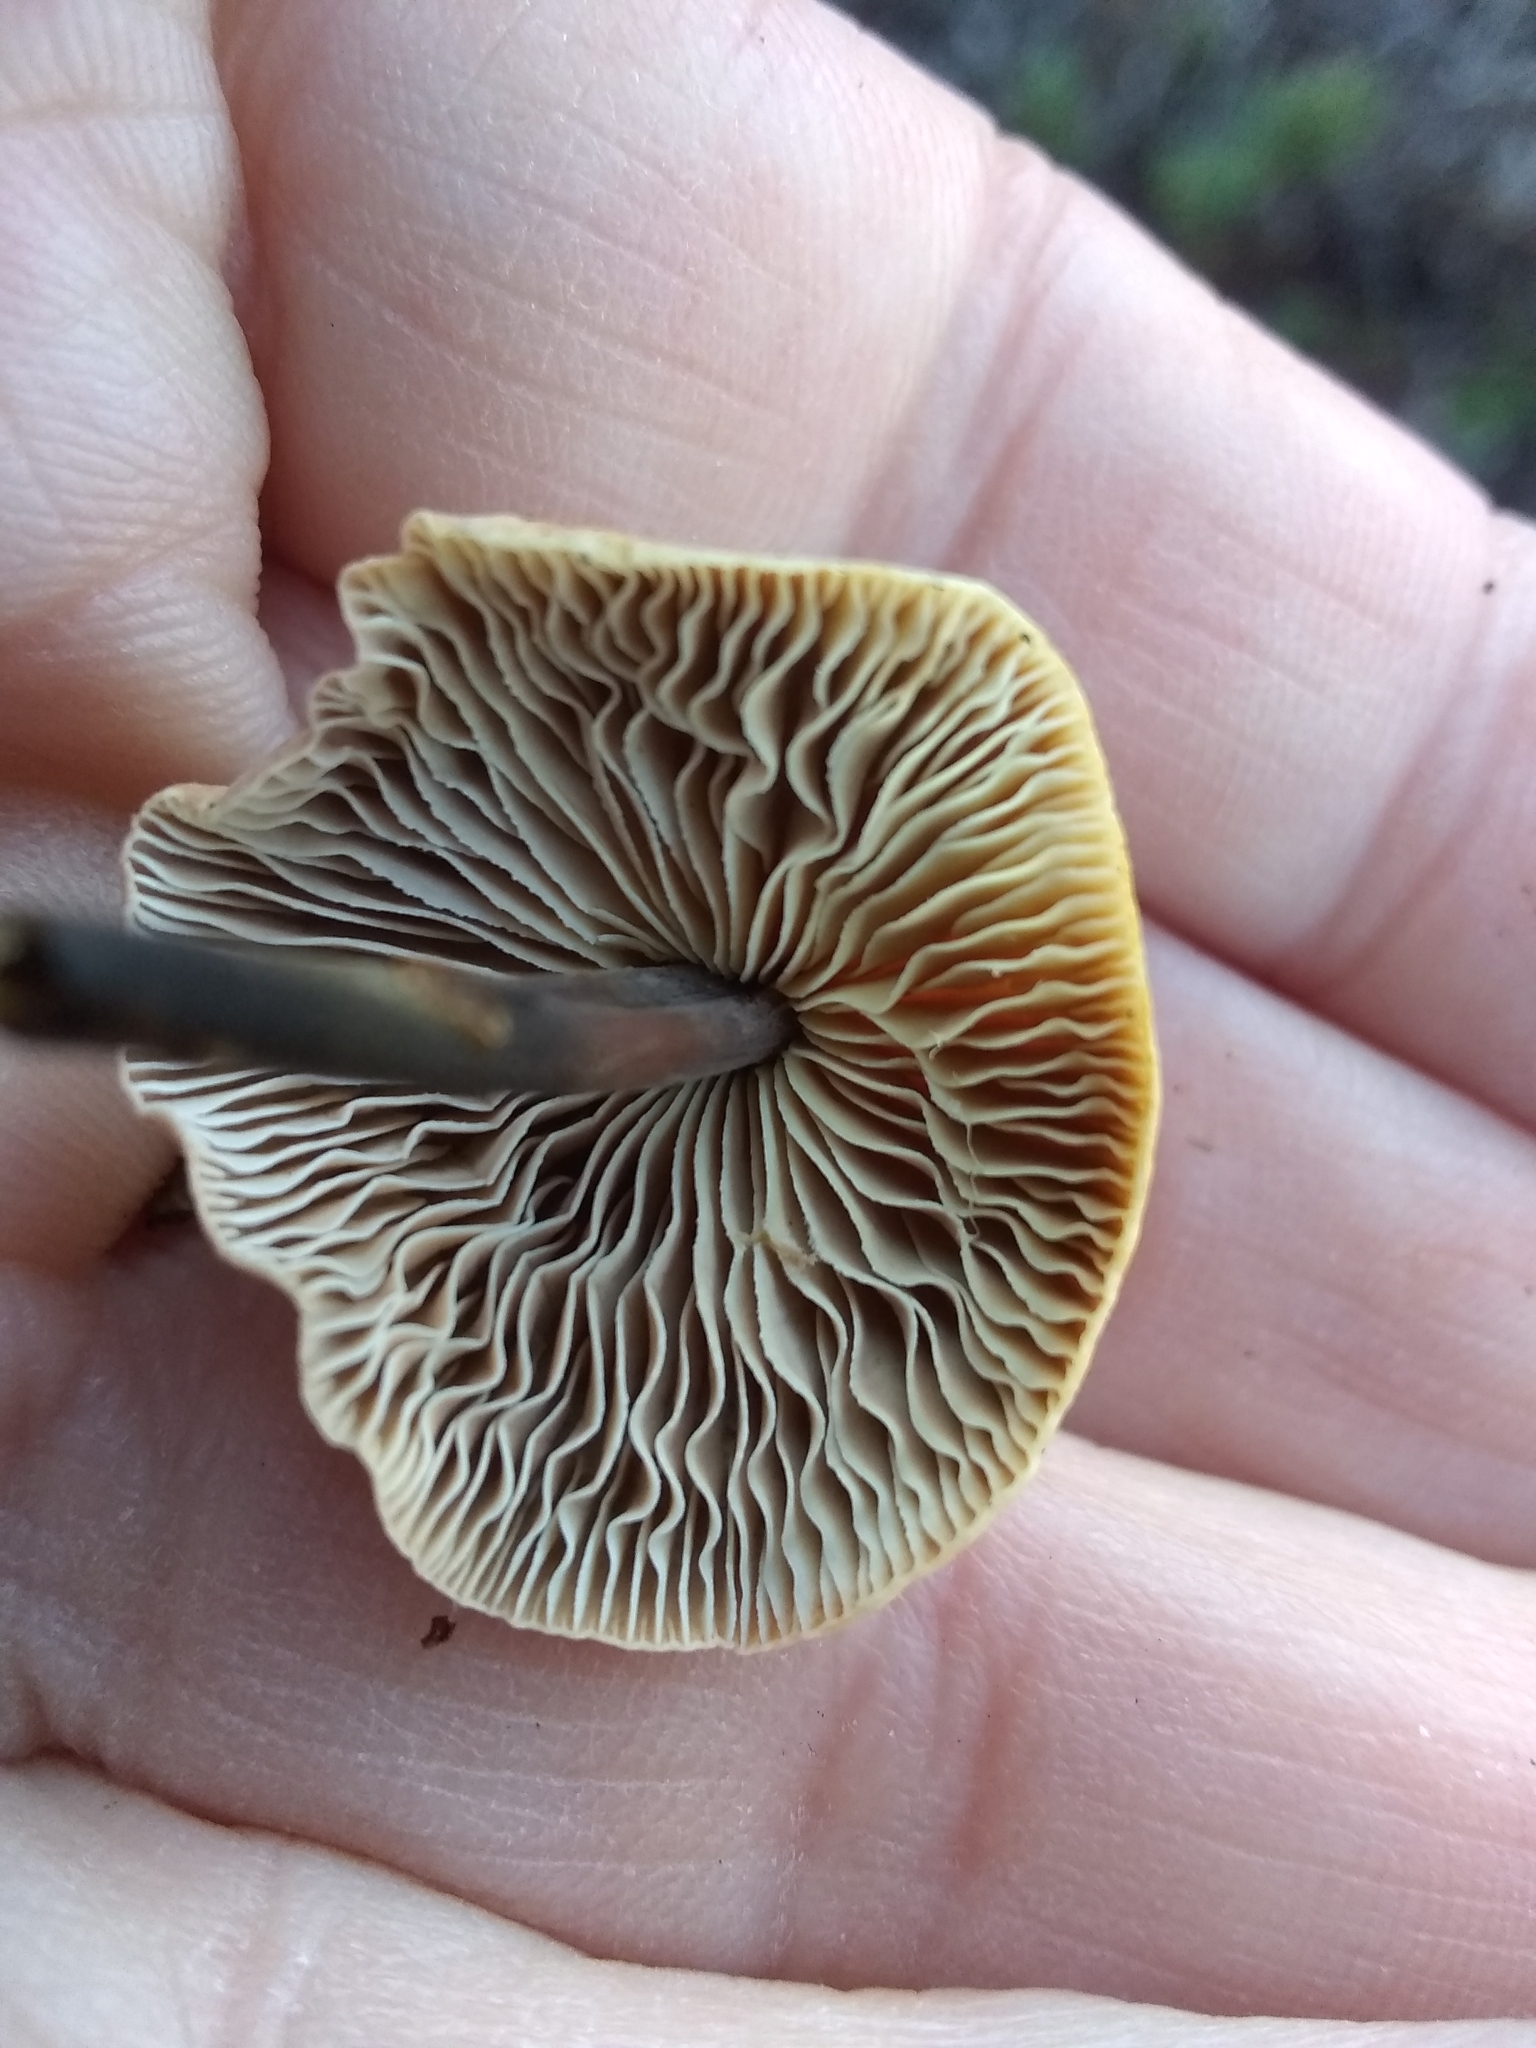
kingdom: Fungi
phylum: Basidiomycota
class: Agaricomycetes
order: Agaricales
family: Omphalotaceae
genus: Gymnopus
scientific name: Gymnopus brassicolens
